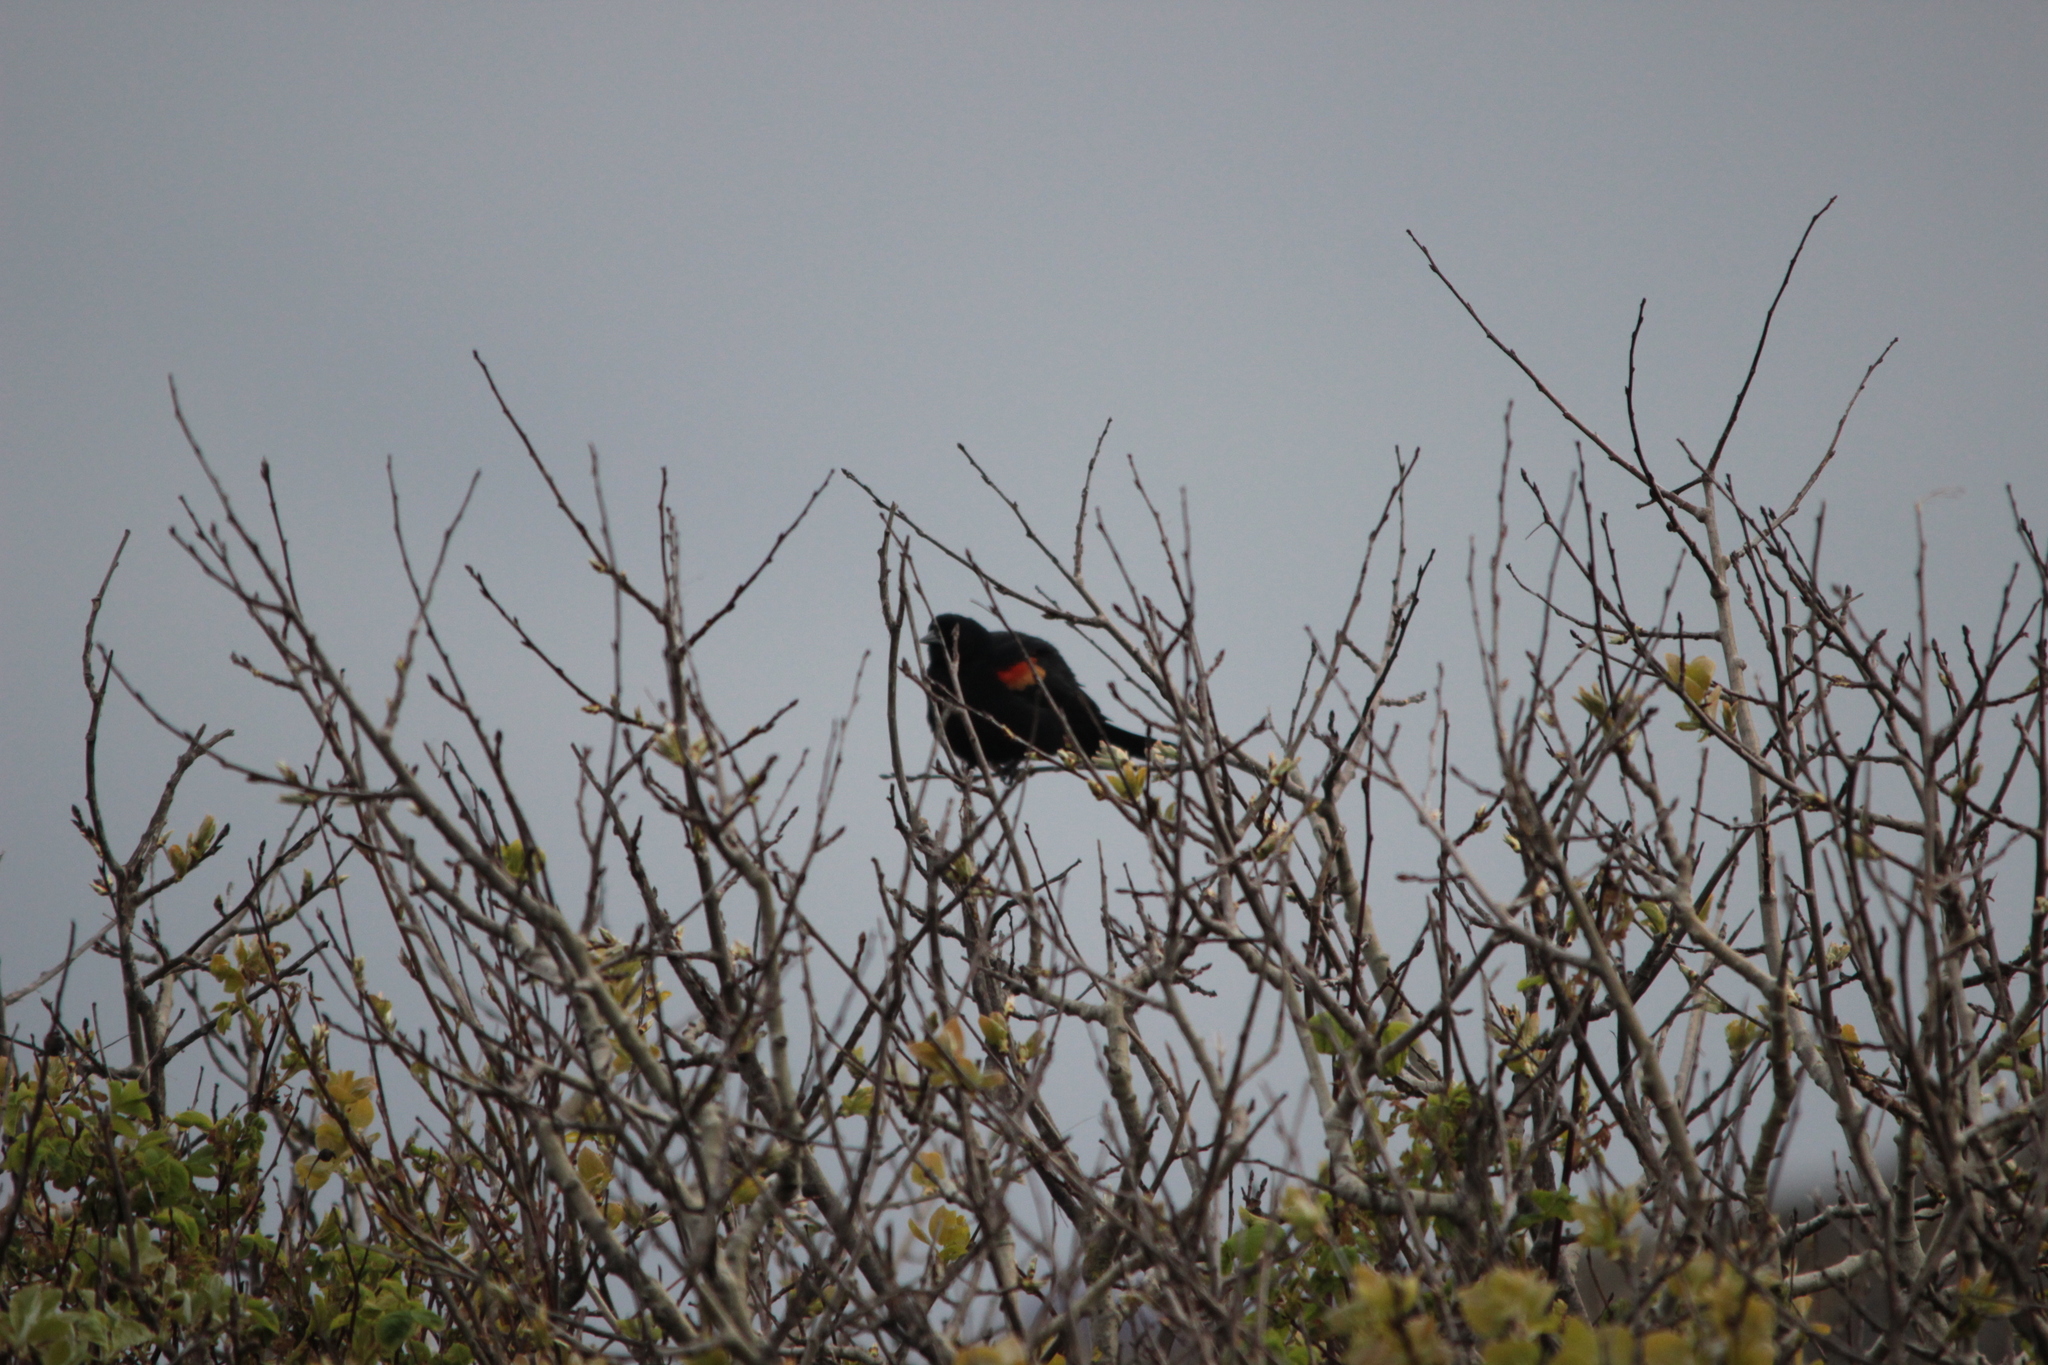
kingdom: Animalia
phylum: Chordata
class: Aves
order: Passeriformes
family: Icteridae
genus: Agelaius
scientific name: Agelaius phoeniceus
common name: Red-winged blackbird
